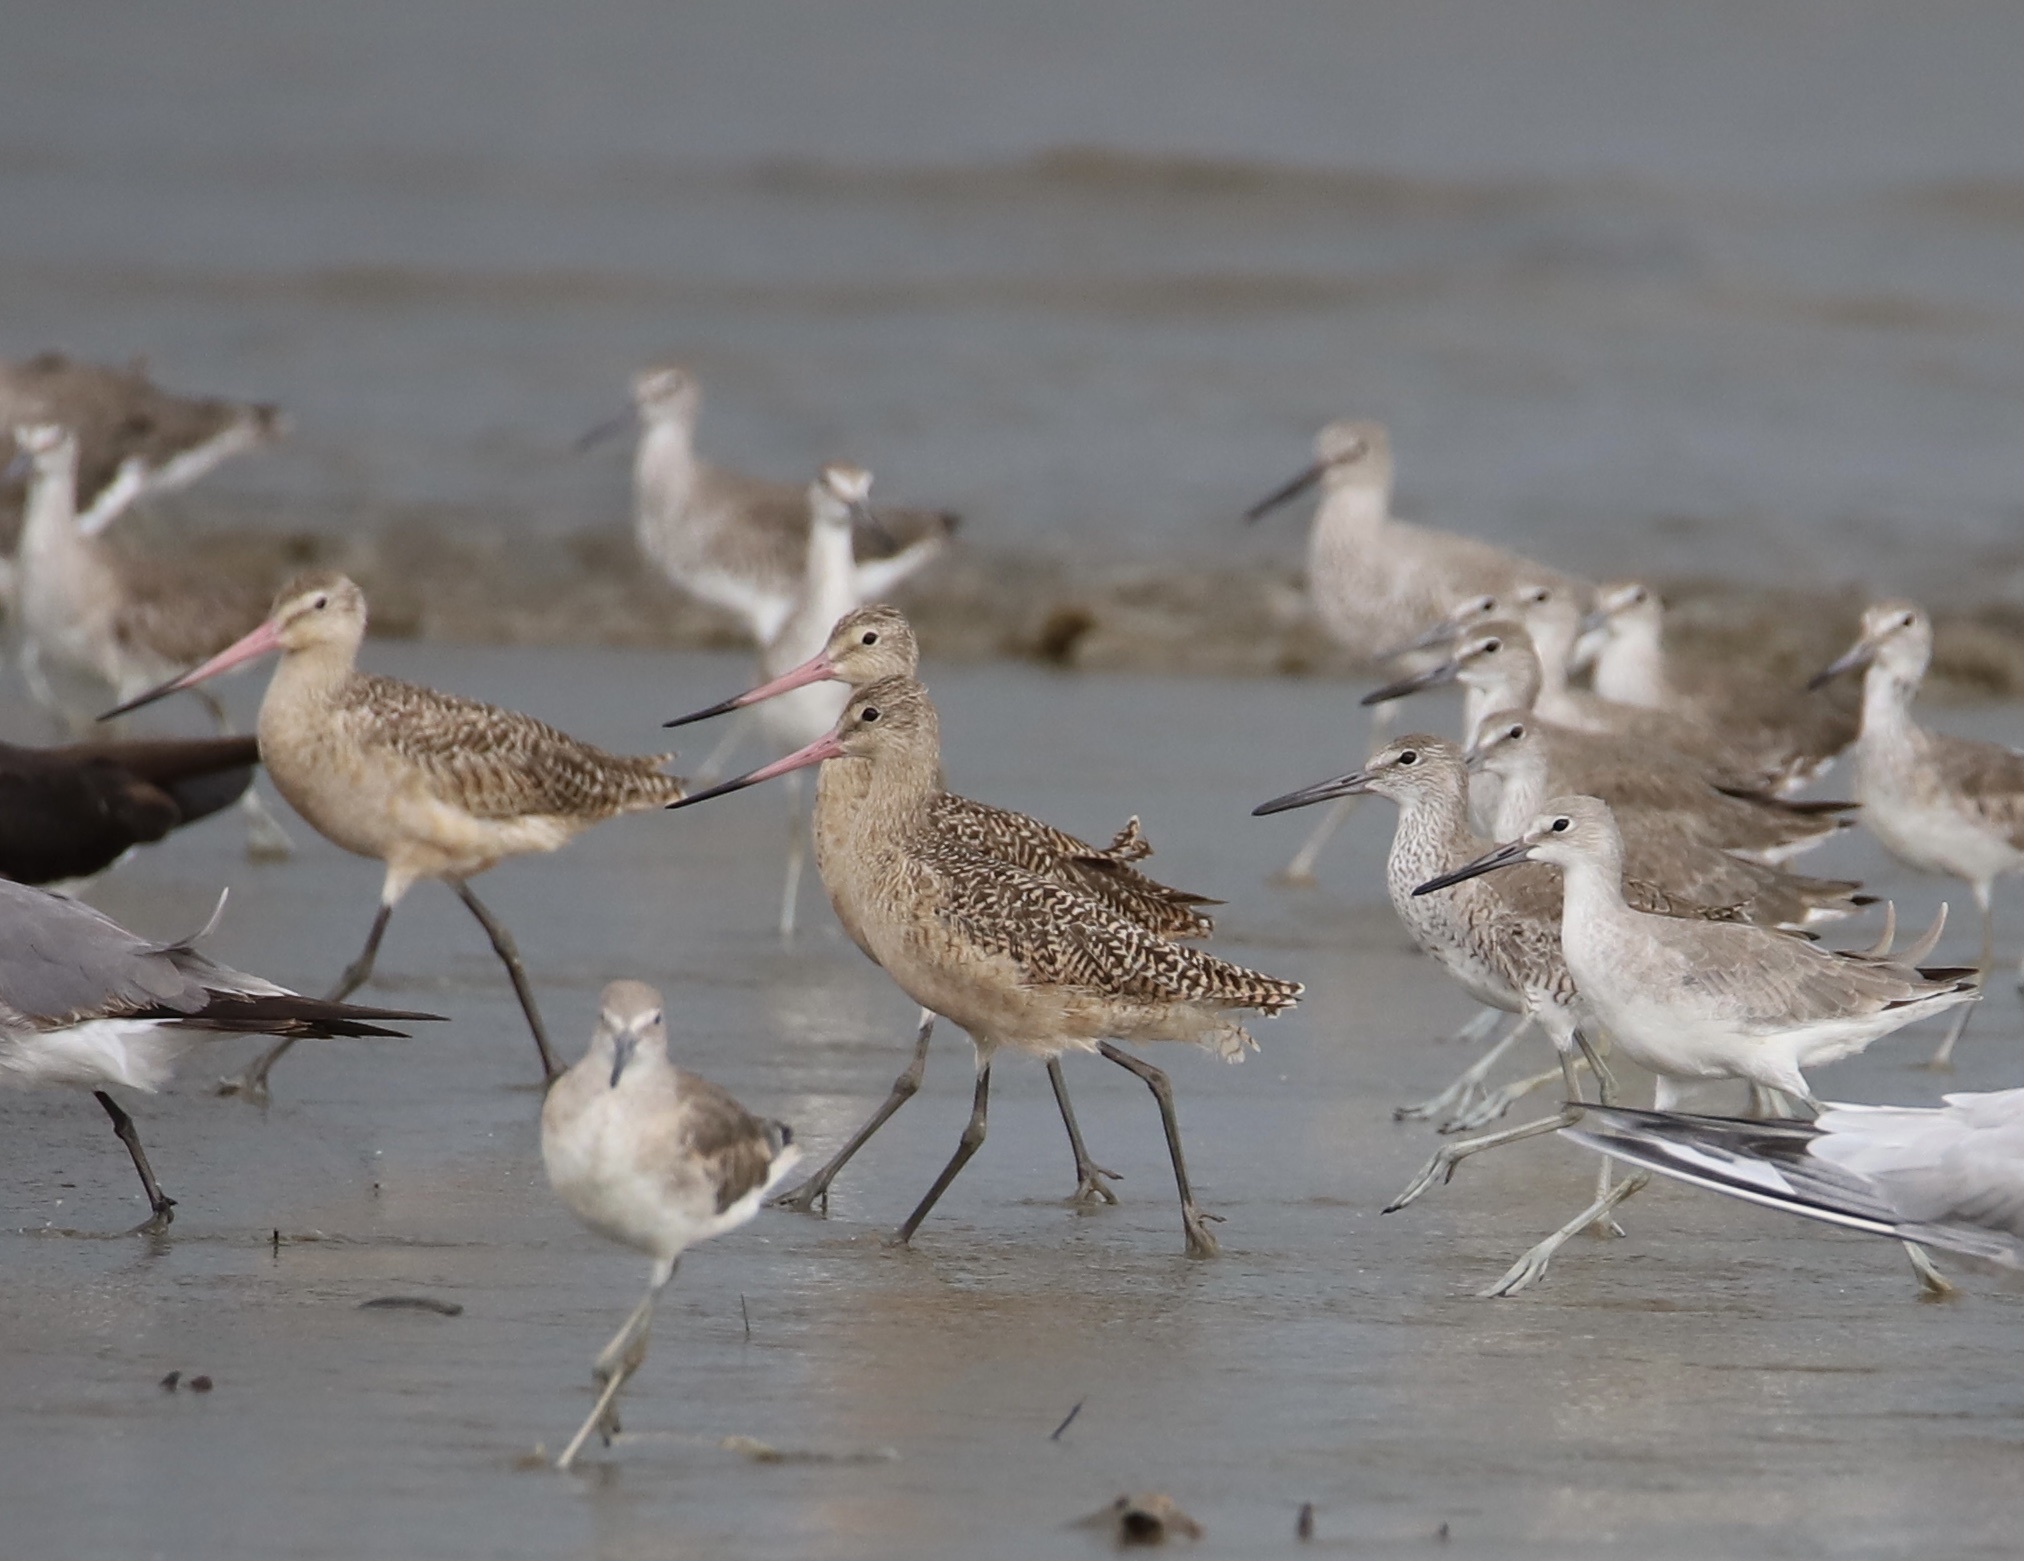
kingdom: Animalia
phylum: Chordata
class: Aves
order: Charadriiformes
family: Scolopacidae
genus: Limosa
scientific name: Limosa fedoa
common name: Marbled godwit
